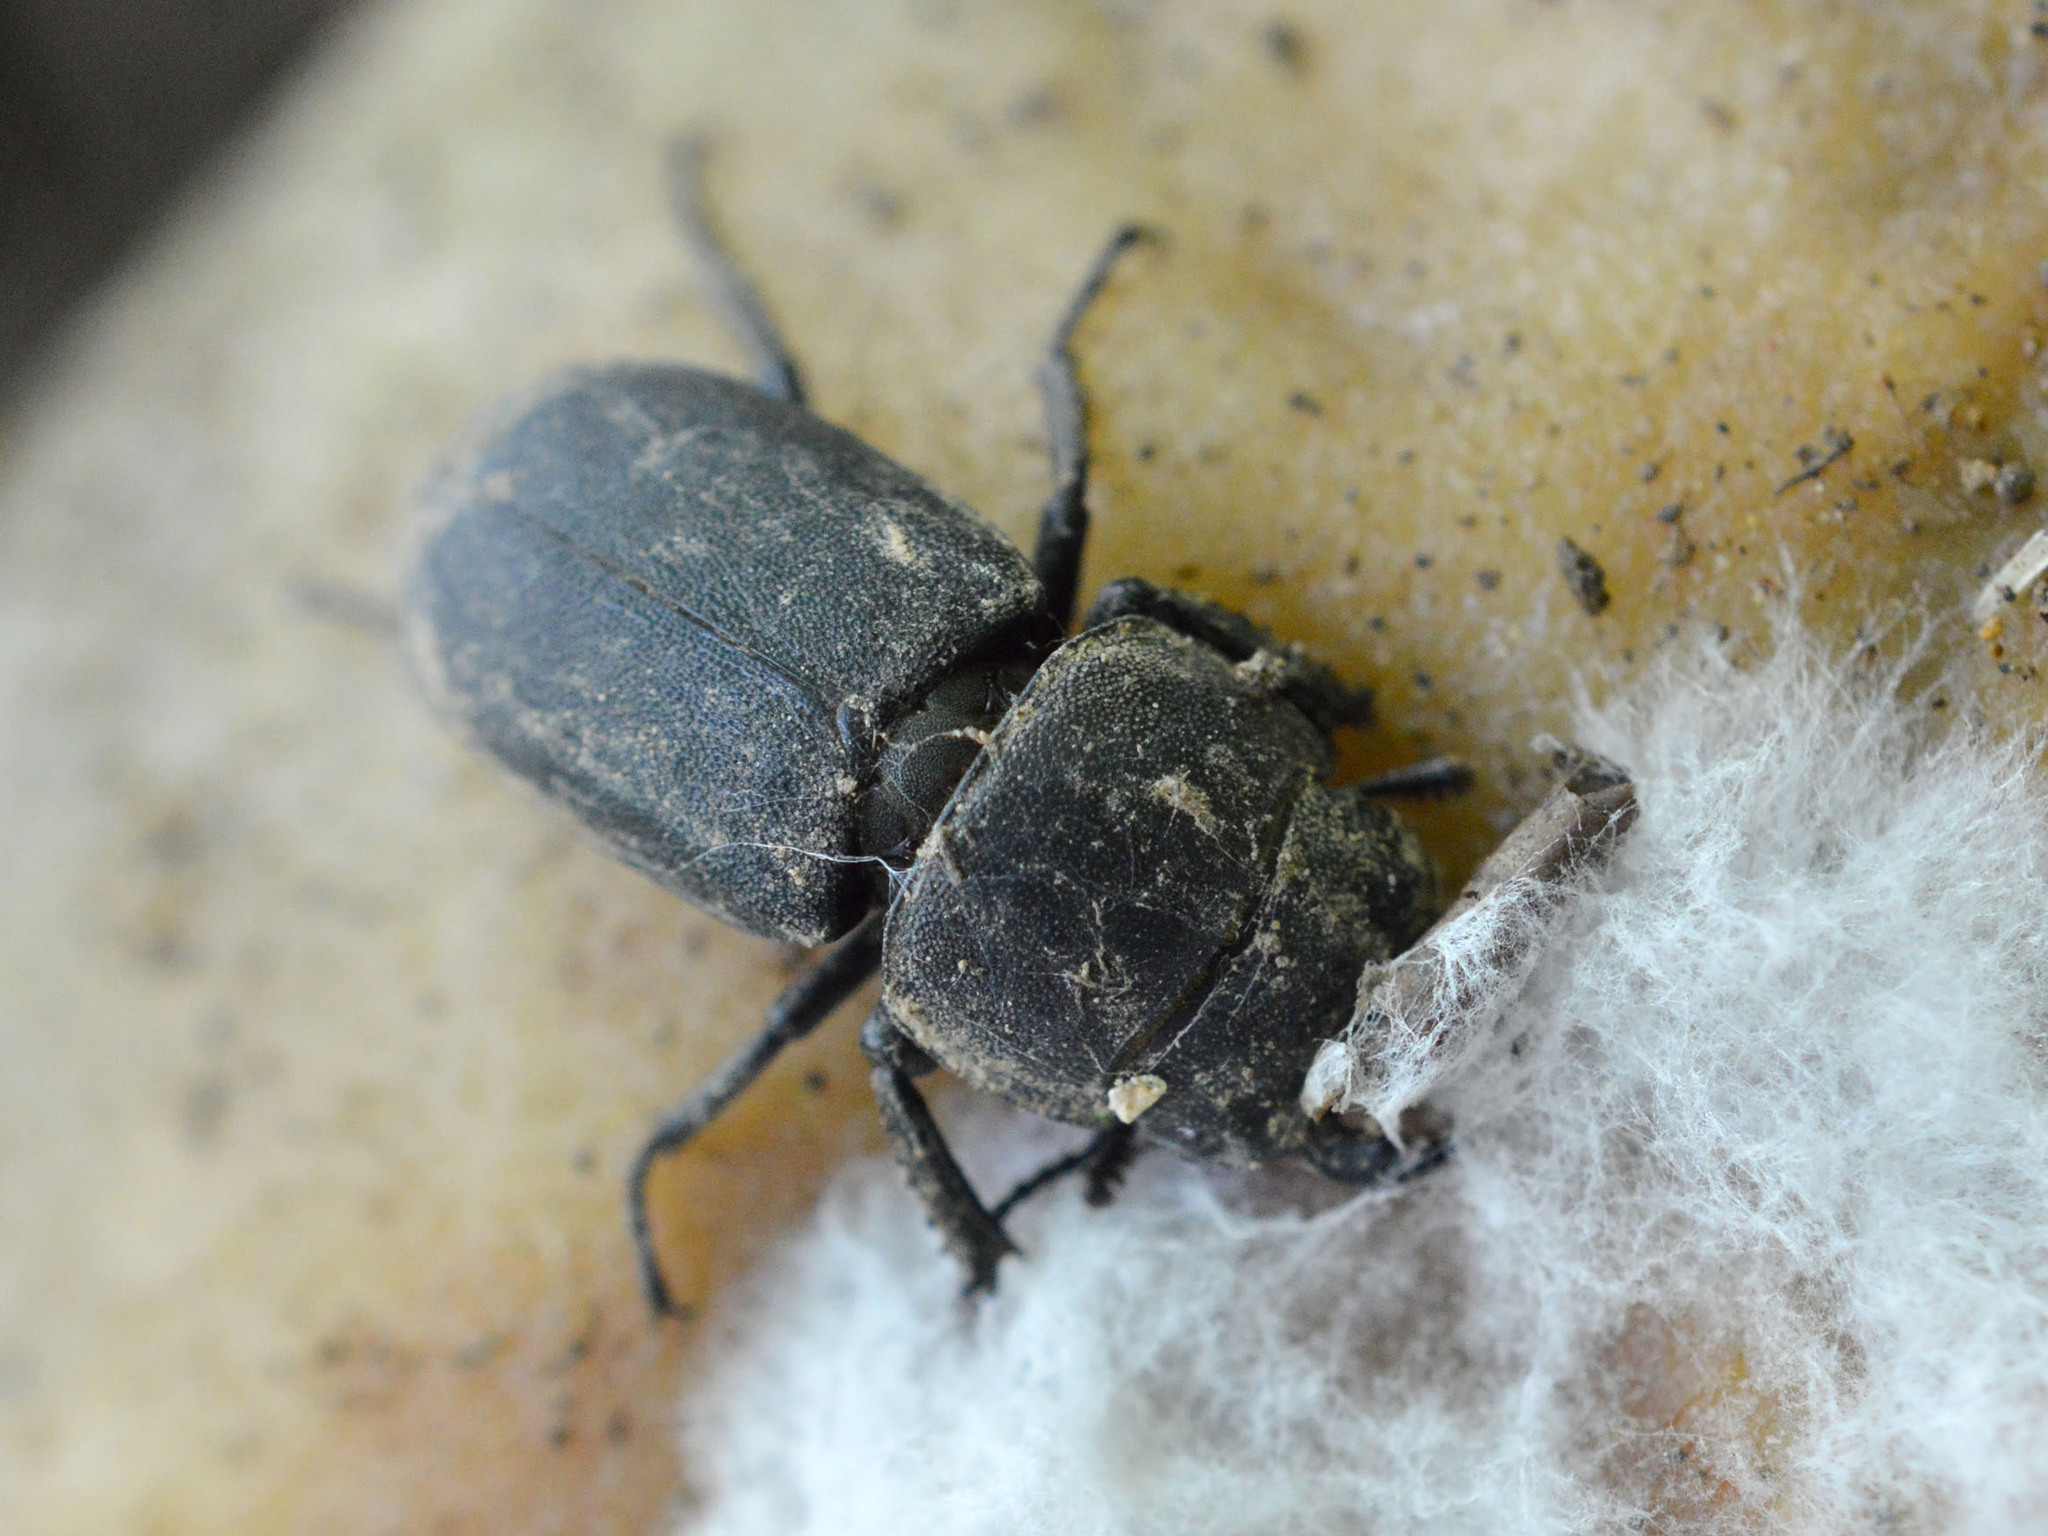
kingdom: Animalia
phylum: Arthropoda
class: Insecta
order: Coleoptera
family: Lucanidae
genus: Dorcus
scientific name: Dorcus parallelipipedus
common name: Lesser stag beetle
